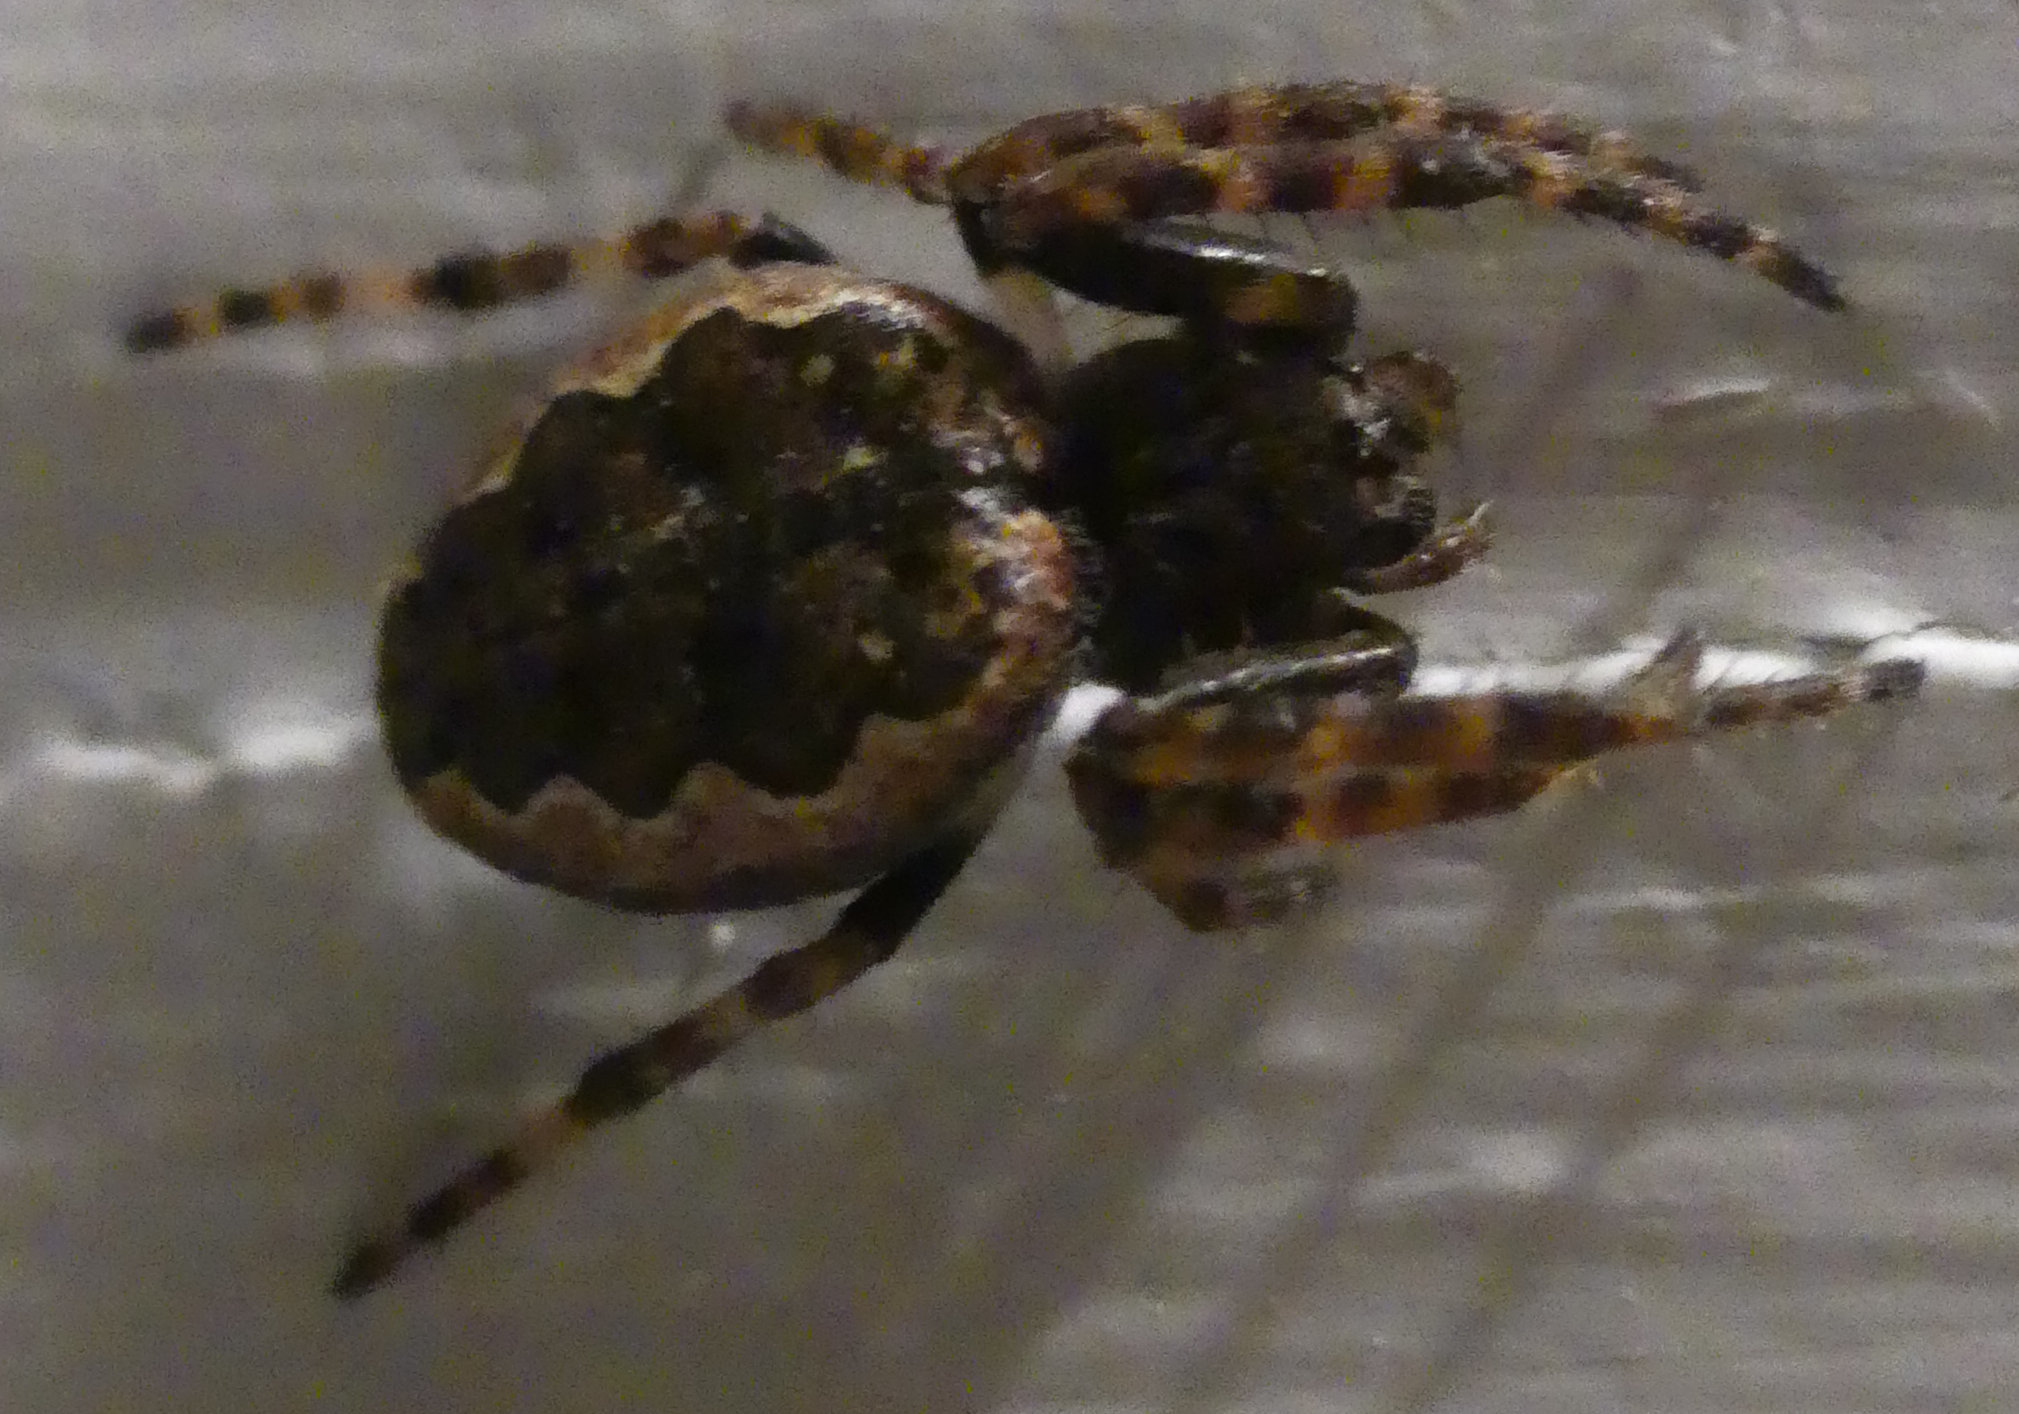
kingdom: Animalia
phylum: Arthropoda
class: Arachnida
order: Araneae
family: Araneidae
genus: Nuctenea
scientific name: Nuctenea umbratica
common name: Toad spider
